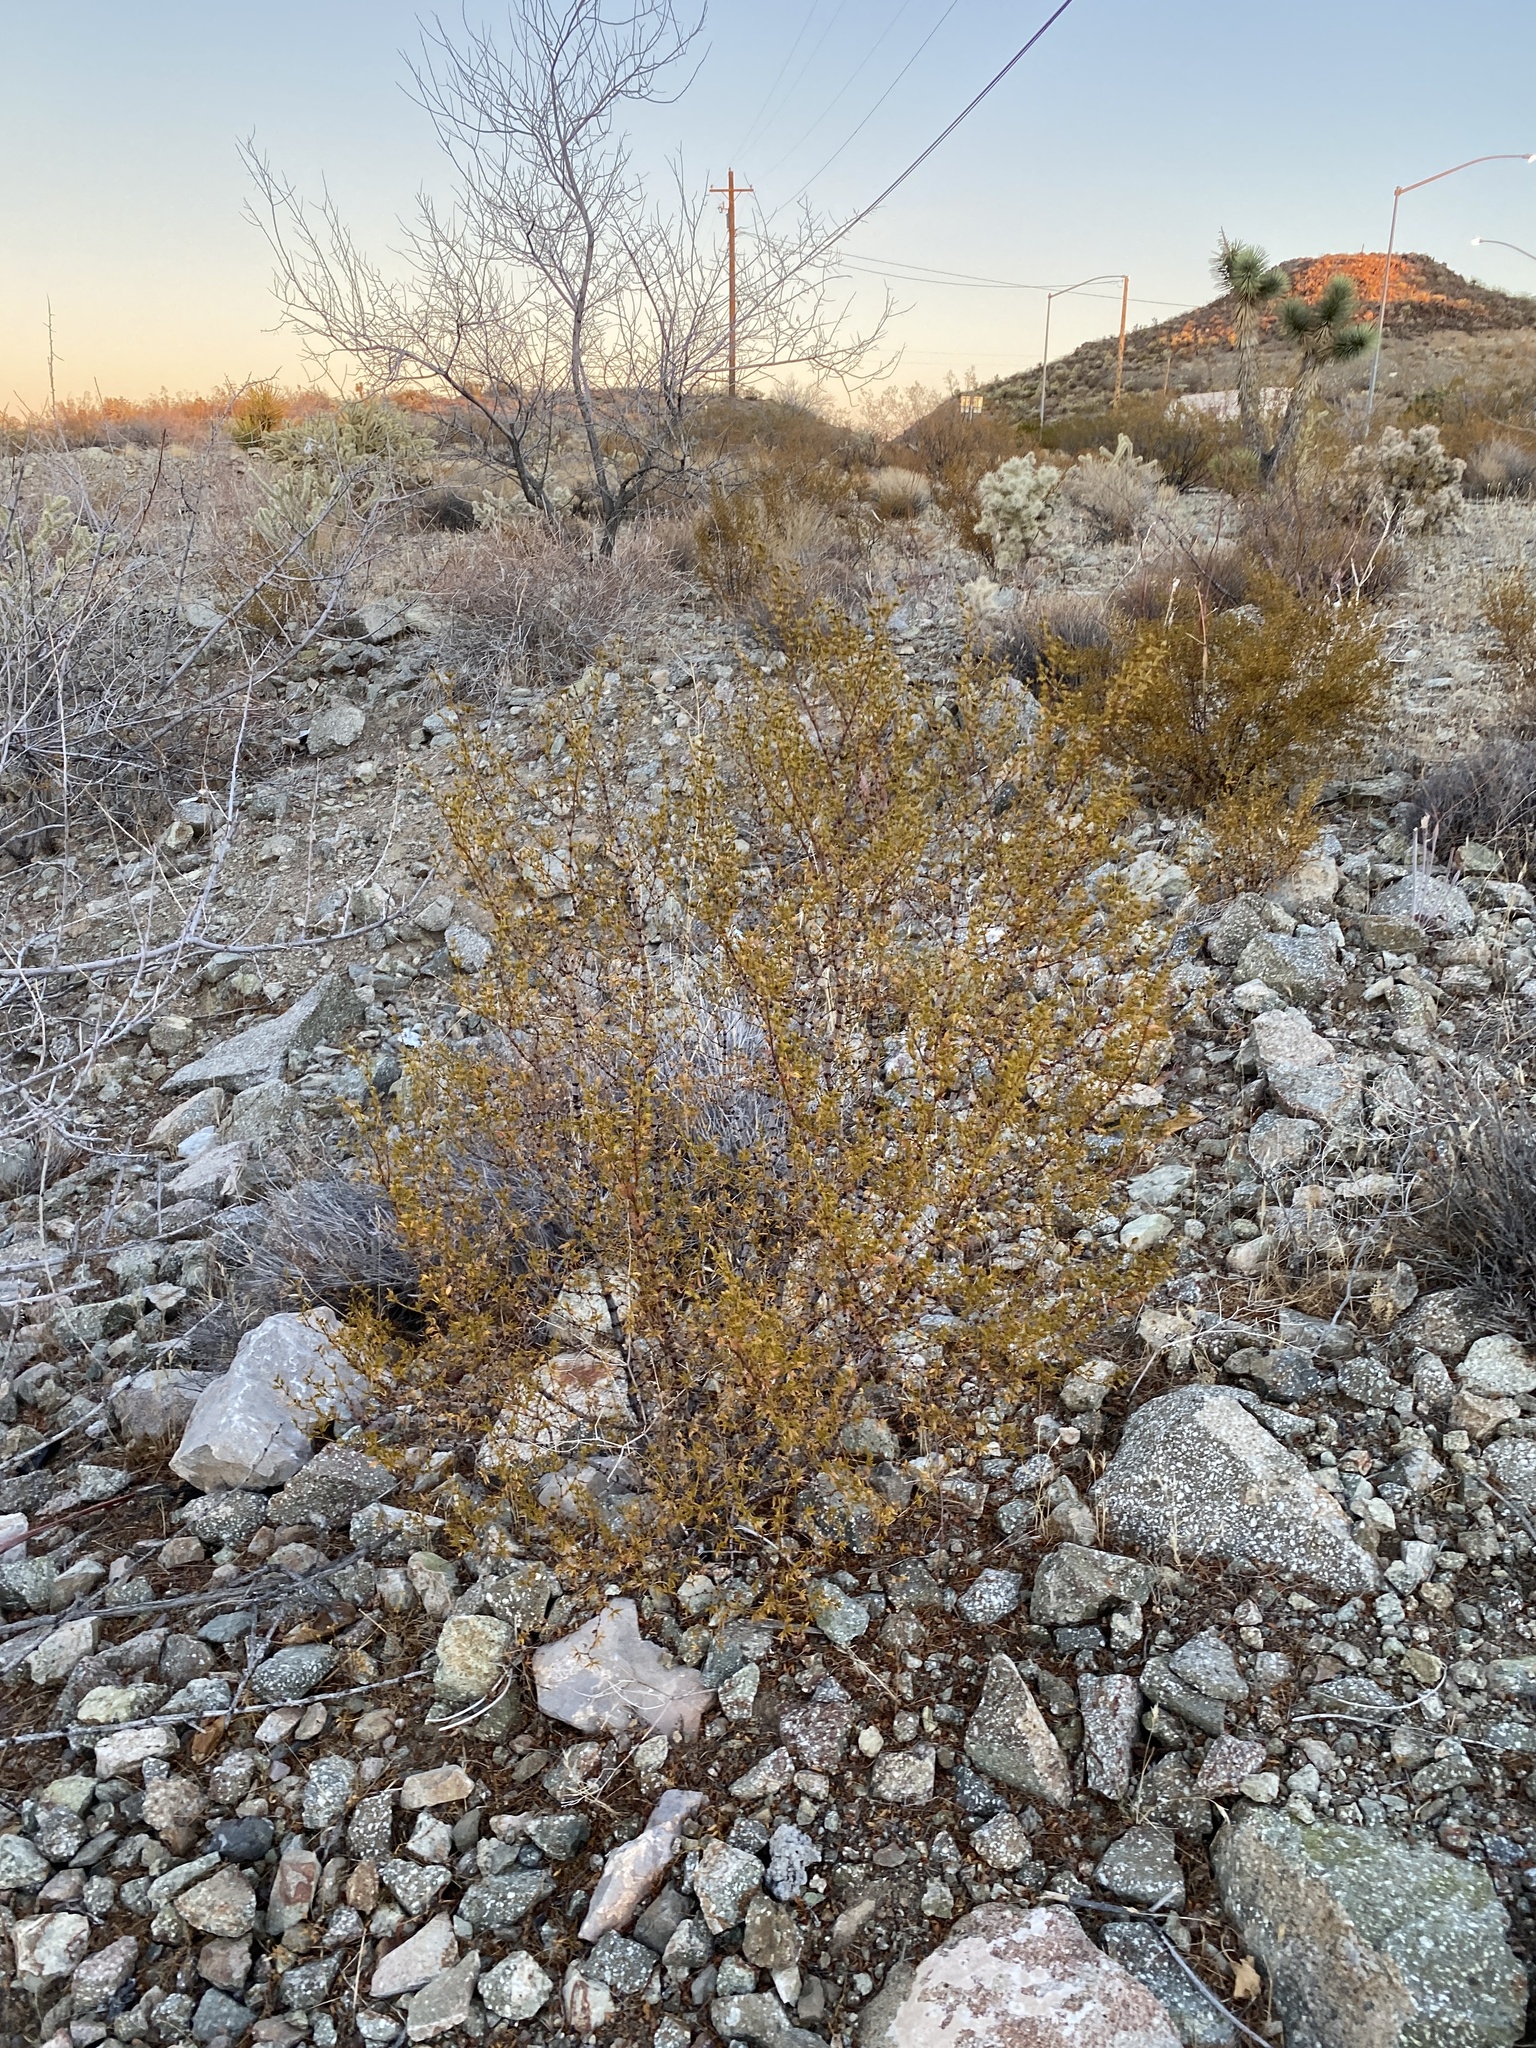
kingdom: Plantae
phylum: Tracheophyta
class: Magnoliopsida
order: Zygophyllales
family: Zygophyllaceae
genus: Larrea
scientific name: Larrea tridentata
